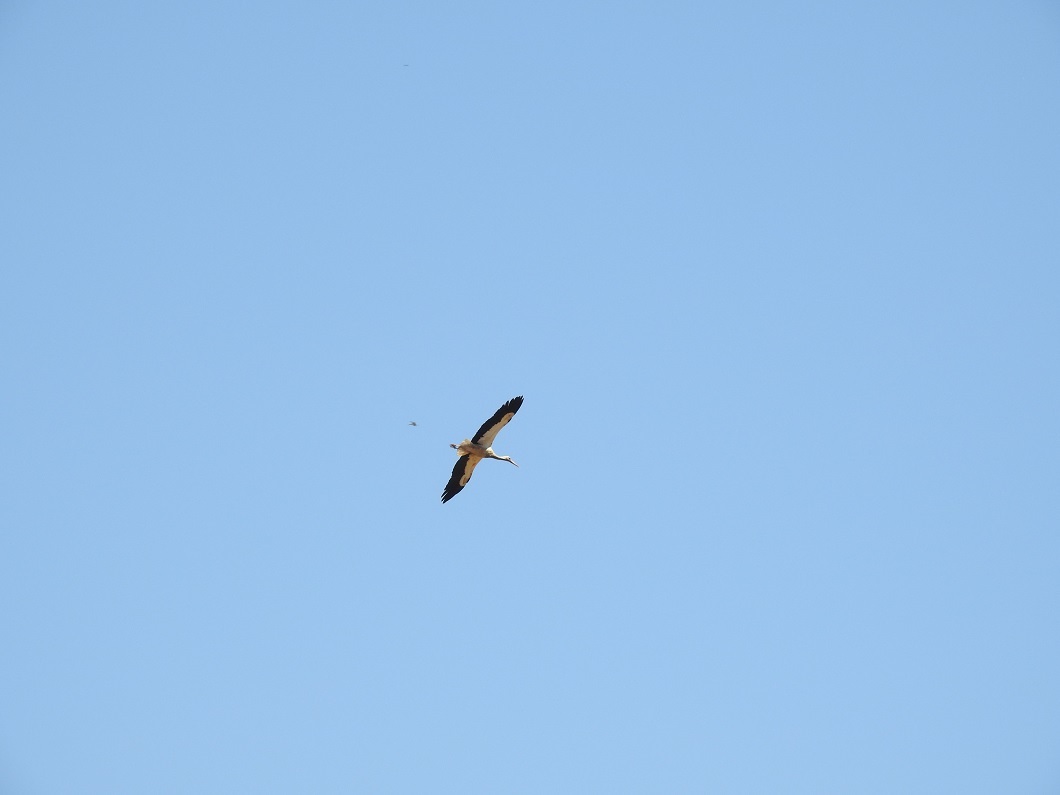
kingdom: Animalia
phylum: Chordata
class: Aves
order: Ciconiiformes
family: Ciconiidae
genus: Ciconia
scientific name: Ciconia ciconia
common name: White stork
